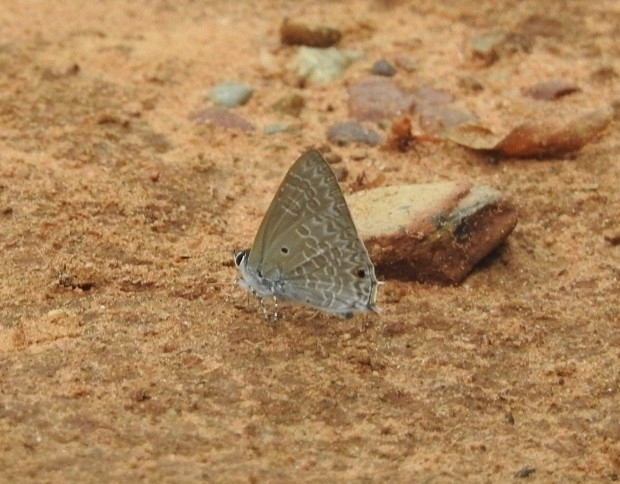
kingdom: Animalia
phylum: Arthropoda
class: Insecta
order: Lepidoptera
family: Lycaenidae
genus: Anthene
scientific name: Anthene lycaenina
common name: Pointed ciliate blue
